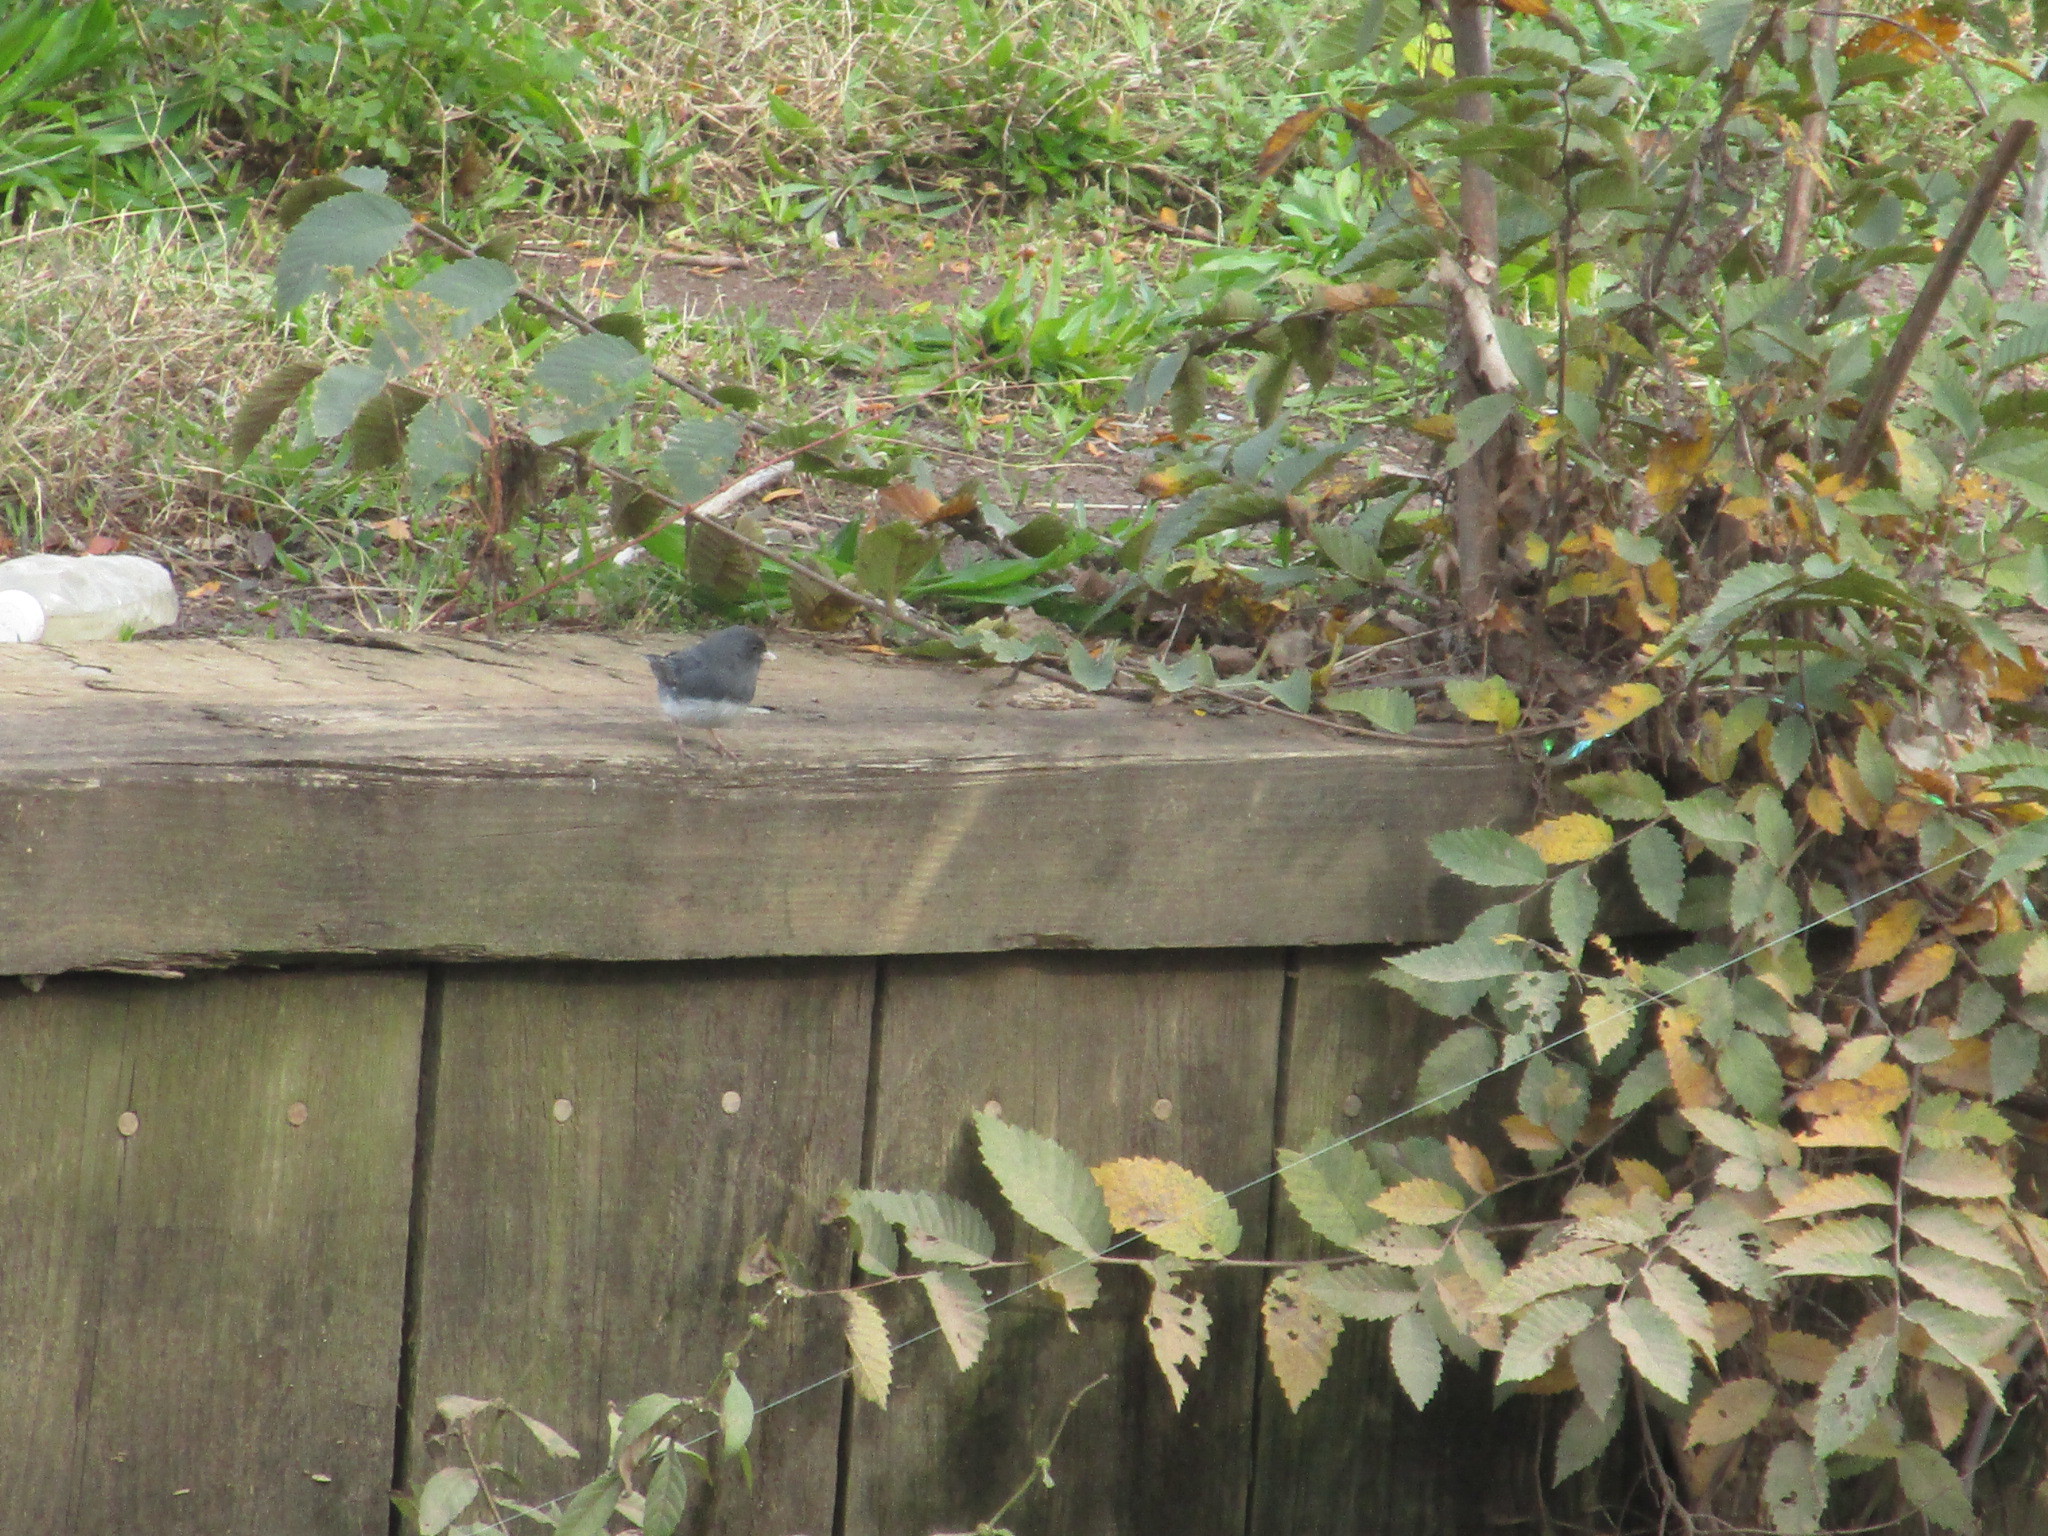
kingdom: Animalia
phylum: Chordata
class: Aves
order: Passeriformes
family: Passerellidae
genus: Junco
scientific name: Junco hyemalis
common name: Dark-eyed junco
